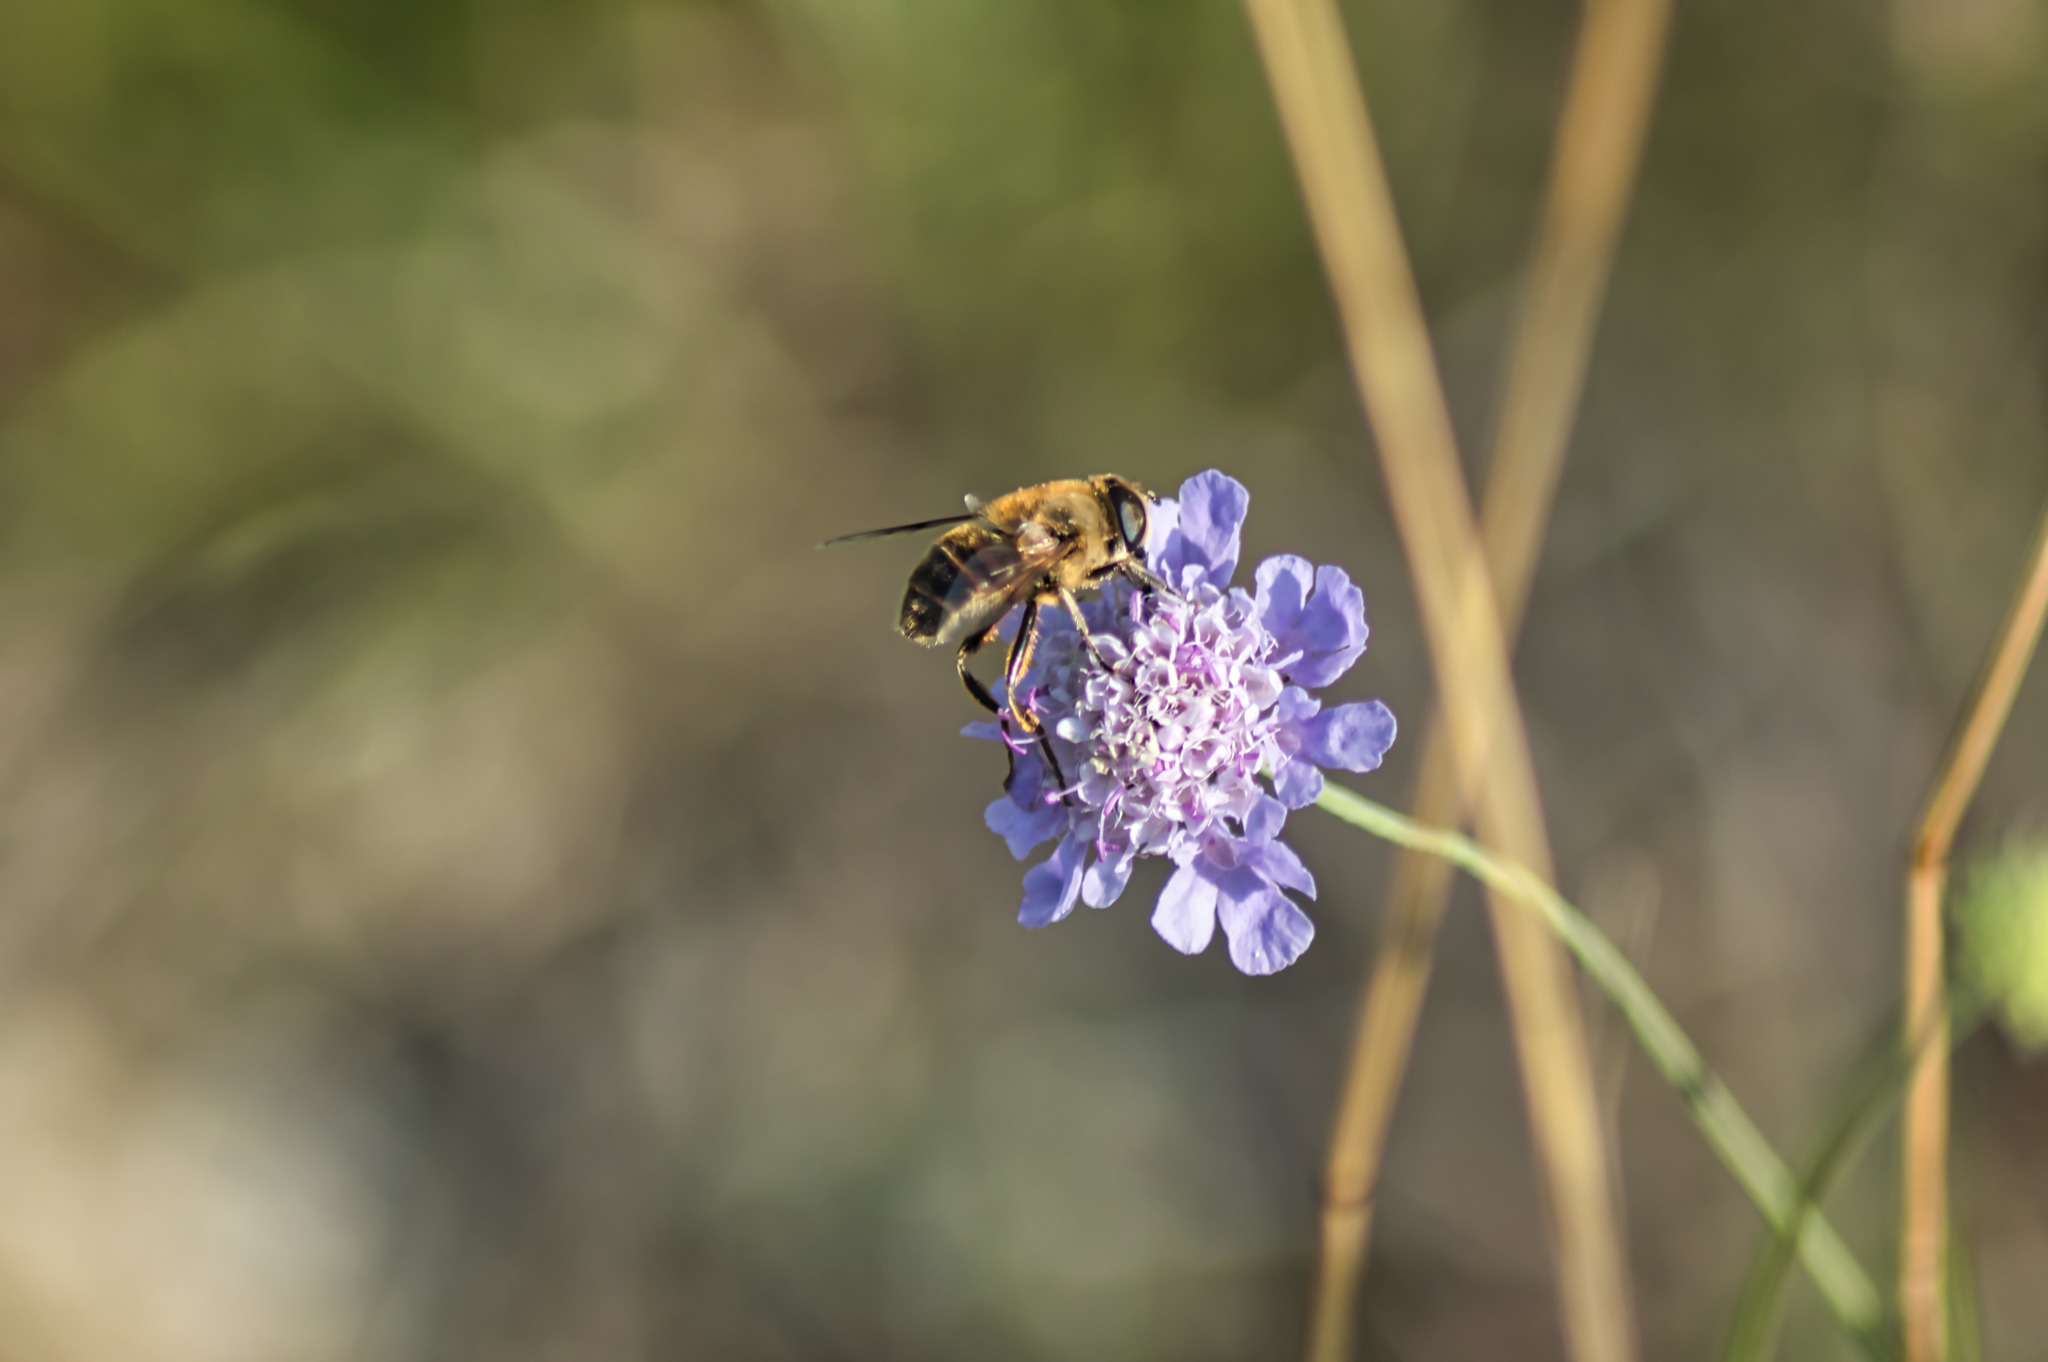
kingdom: Animalia
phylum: Arthropoda
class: Insecta
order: Diptera
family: Syrphidae
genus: Eristalis
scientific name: Eristalis tenax
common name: Drone fly
